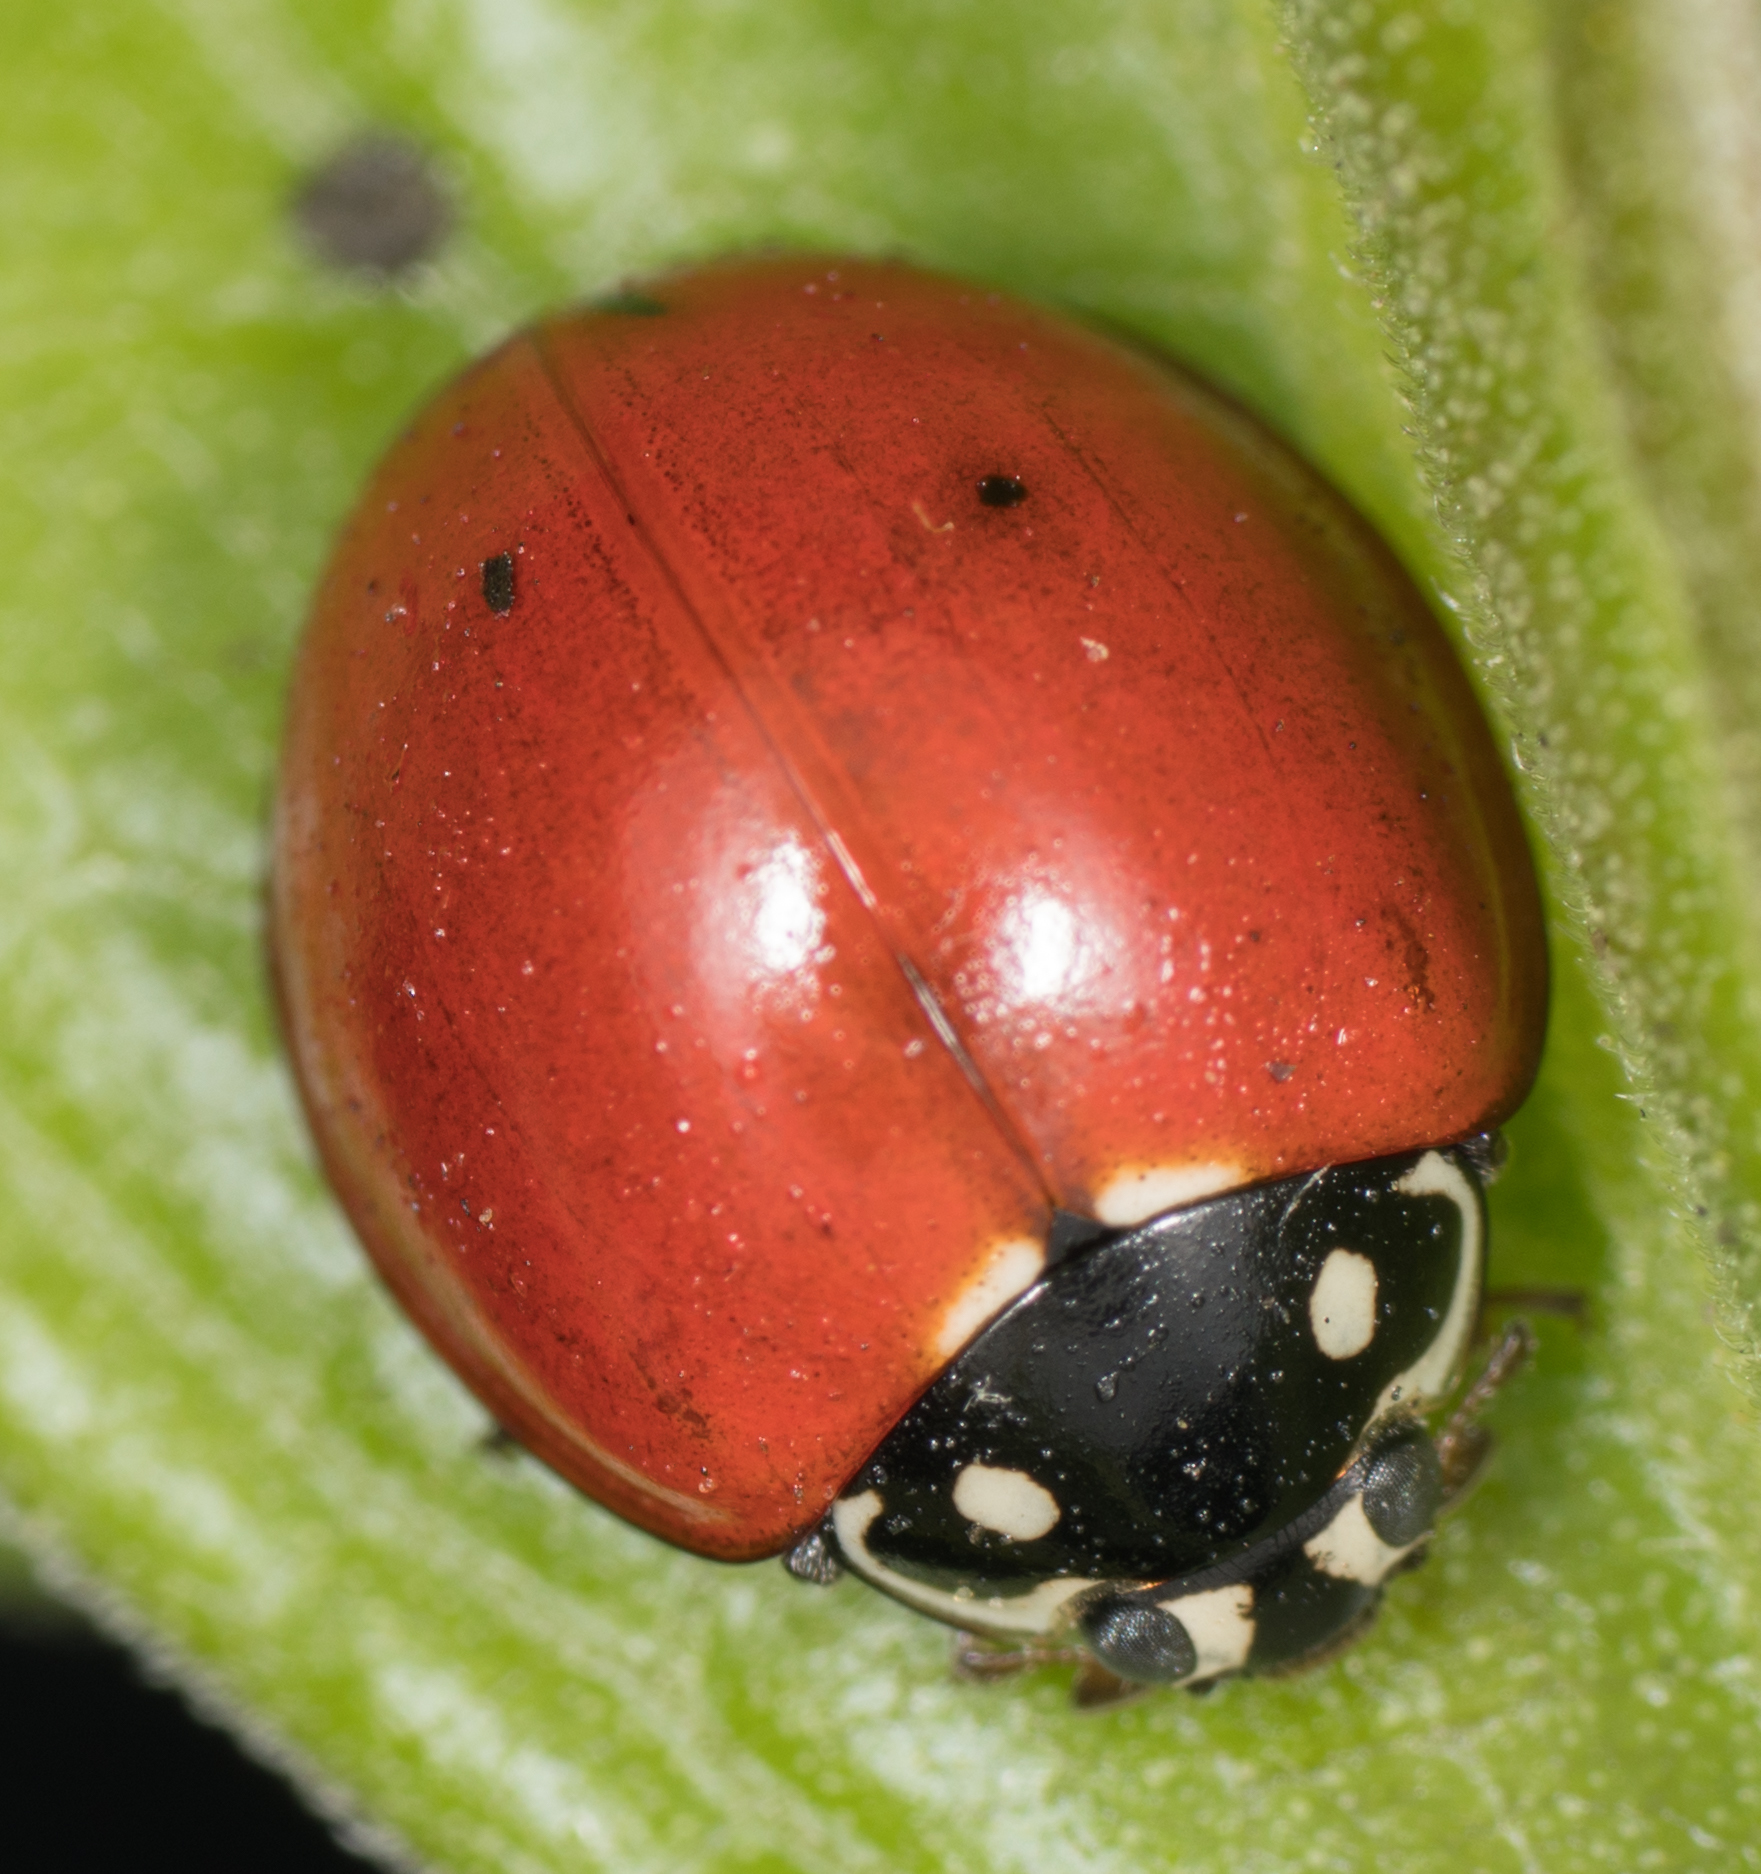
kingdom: Animalia
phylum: Arthropoda
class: Insecta
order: Coleoptera
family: Coccinellidae
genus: Cycloneda
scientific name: Cycloneda sanguinea
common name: Ladybird beetle
